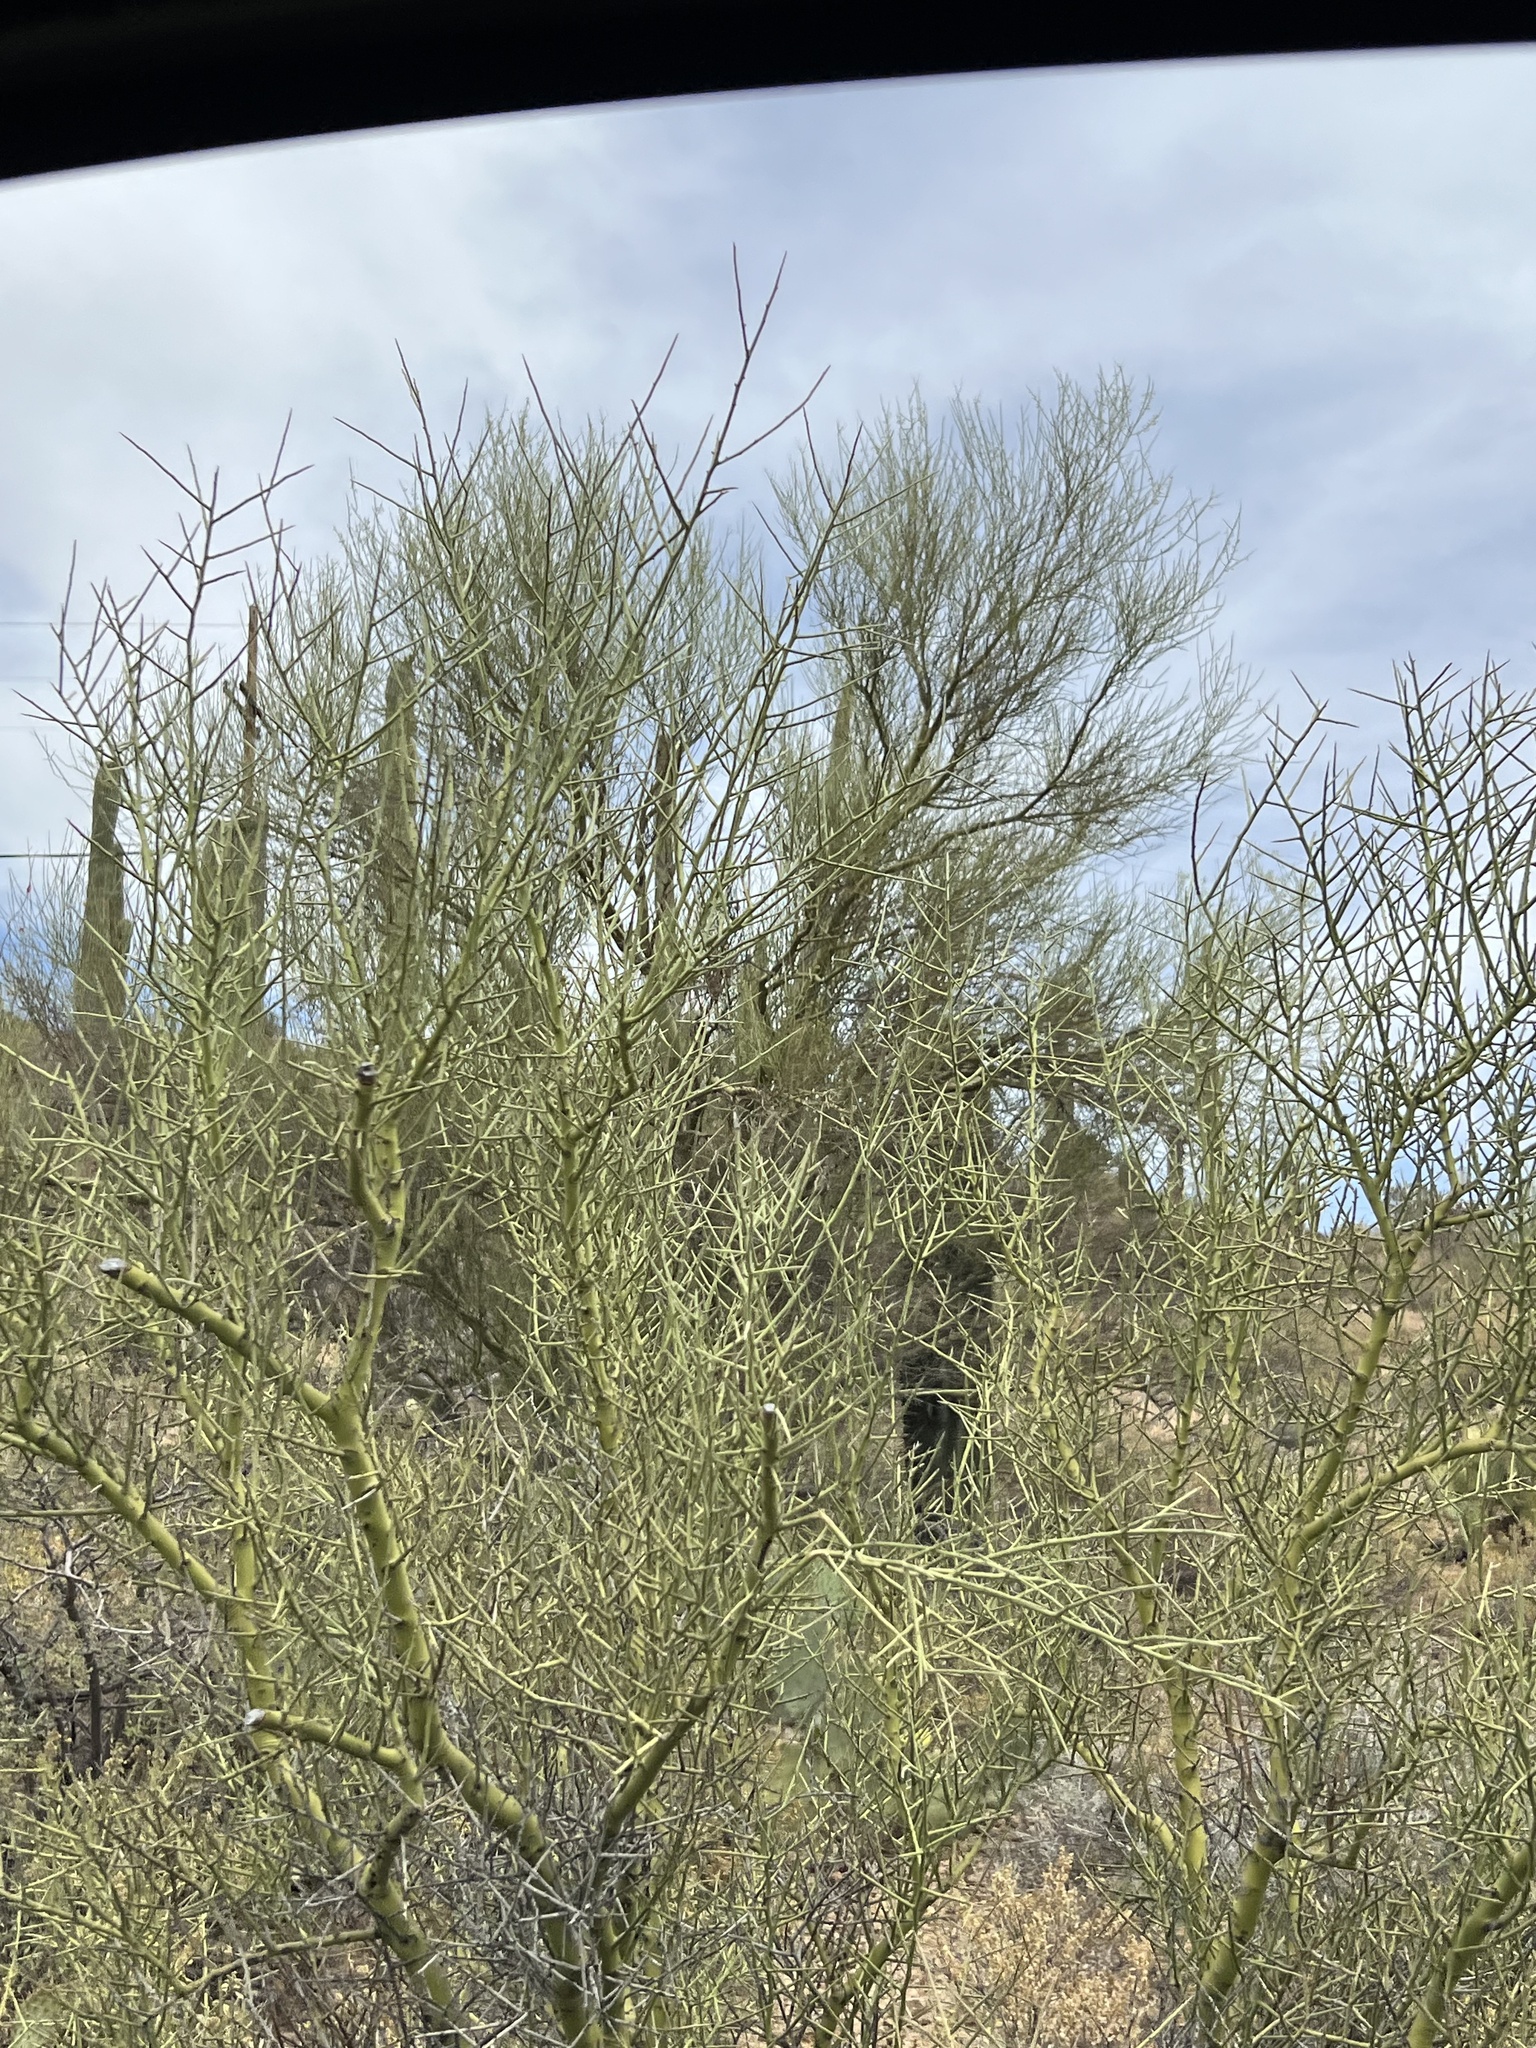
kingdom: Plantae
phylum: Tracheophyta
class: Magnoliopsida
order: Fabales
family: Fabaceae
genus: Parkinsonia
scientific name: Parkinsonia microphylla
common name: Yellow paloverde
